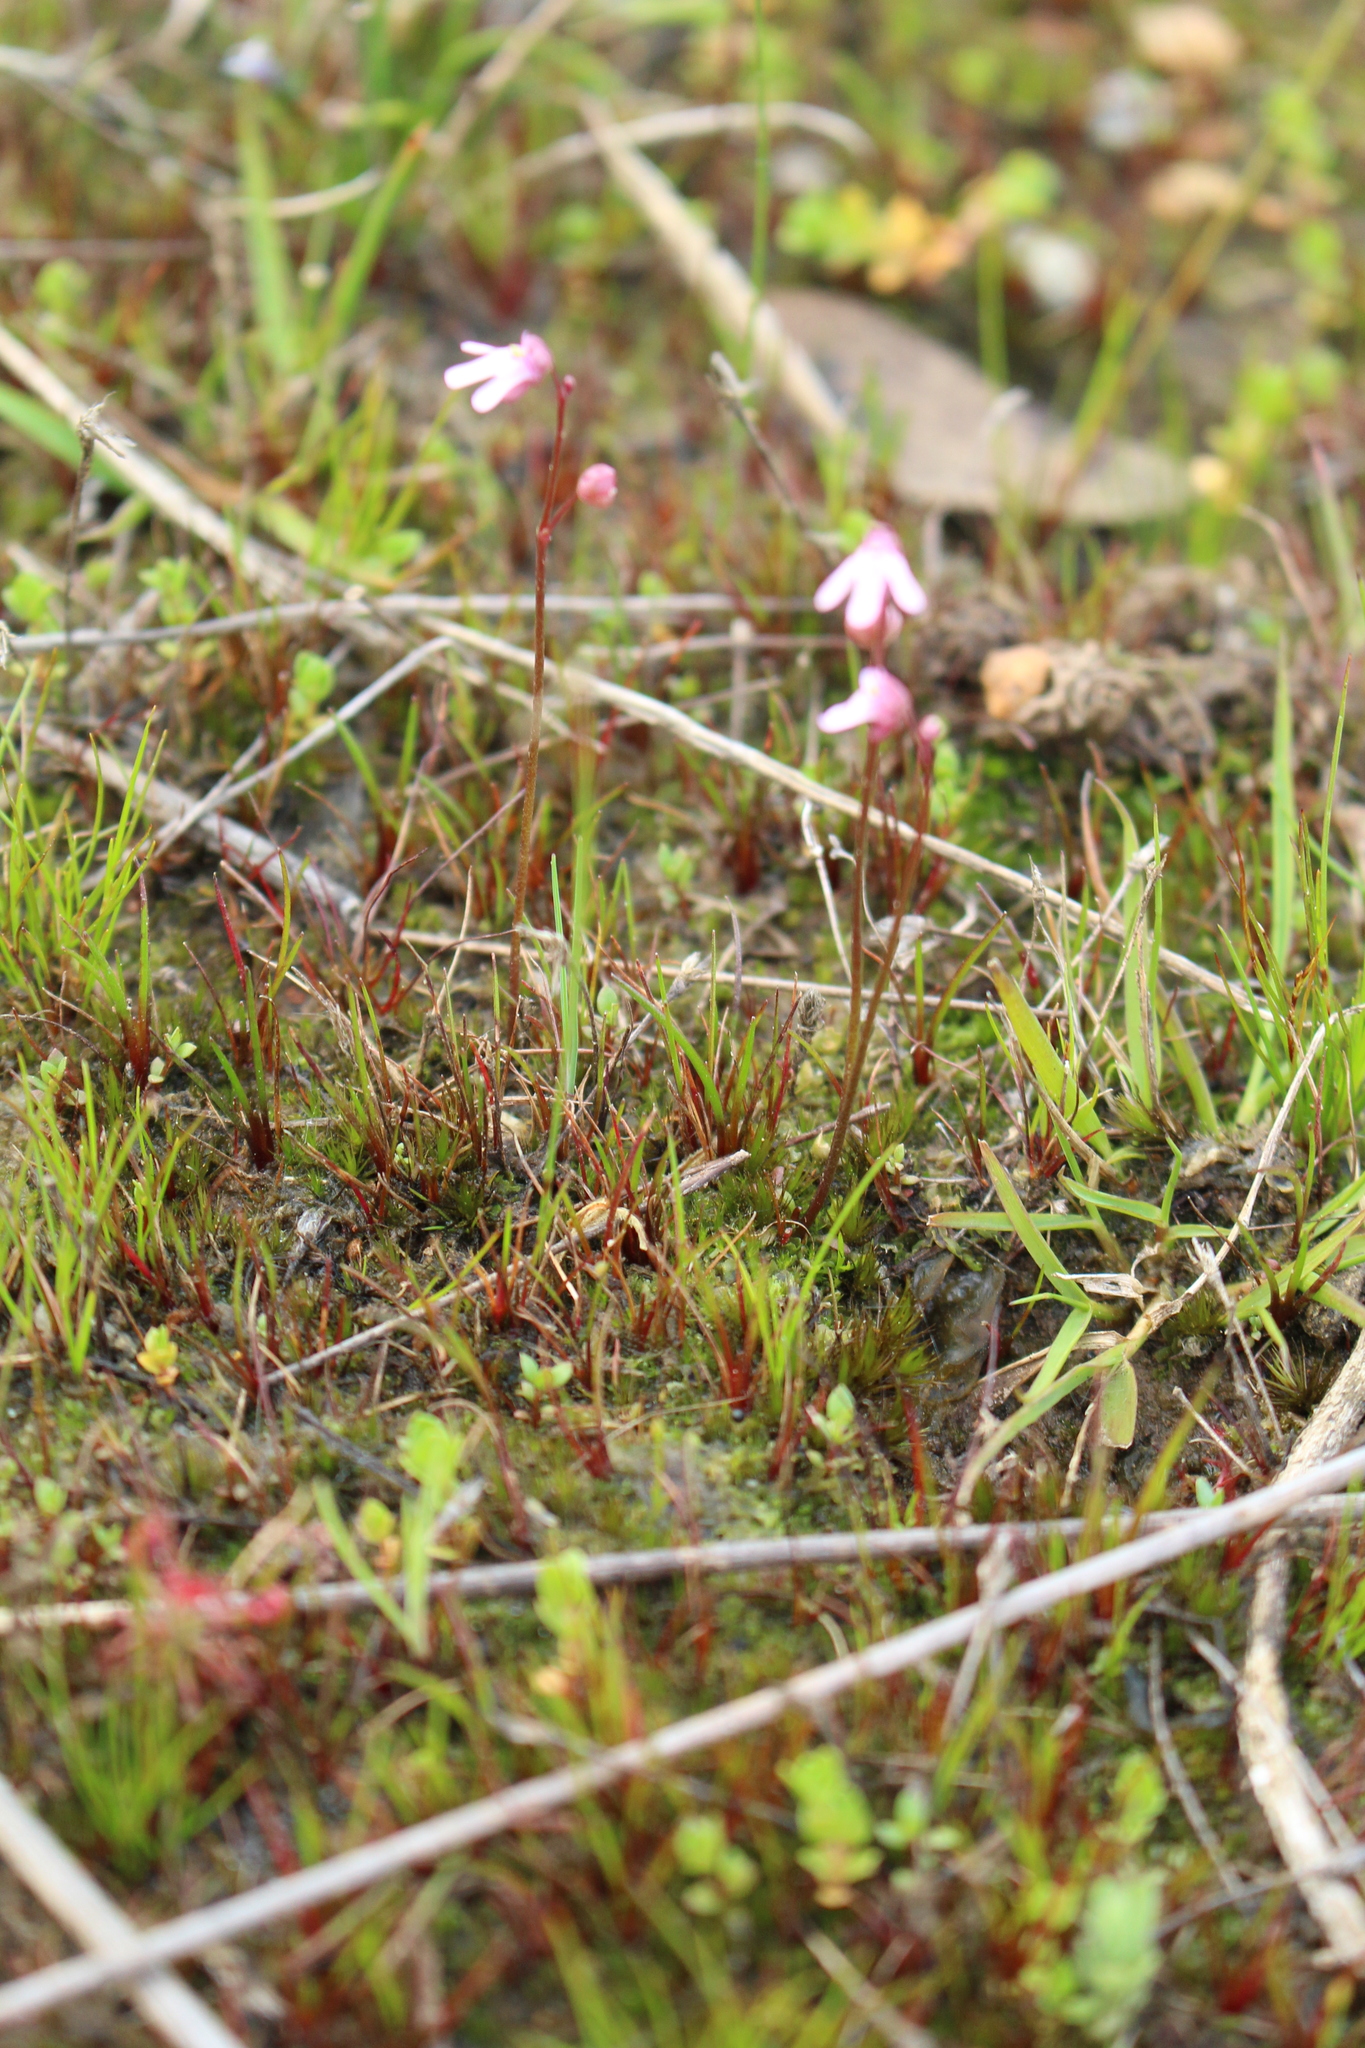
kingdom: Plantae
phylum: Tracheophyta
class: Magnoliopsida
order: Lamiales
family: Lentibulariaceae
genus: Utricularia
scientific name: Utricularia tenella
